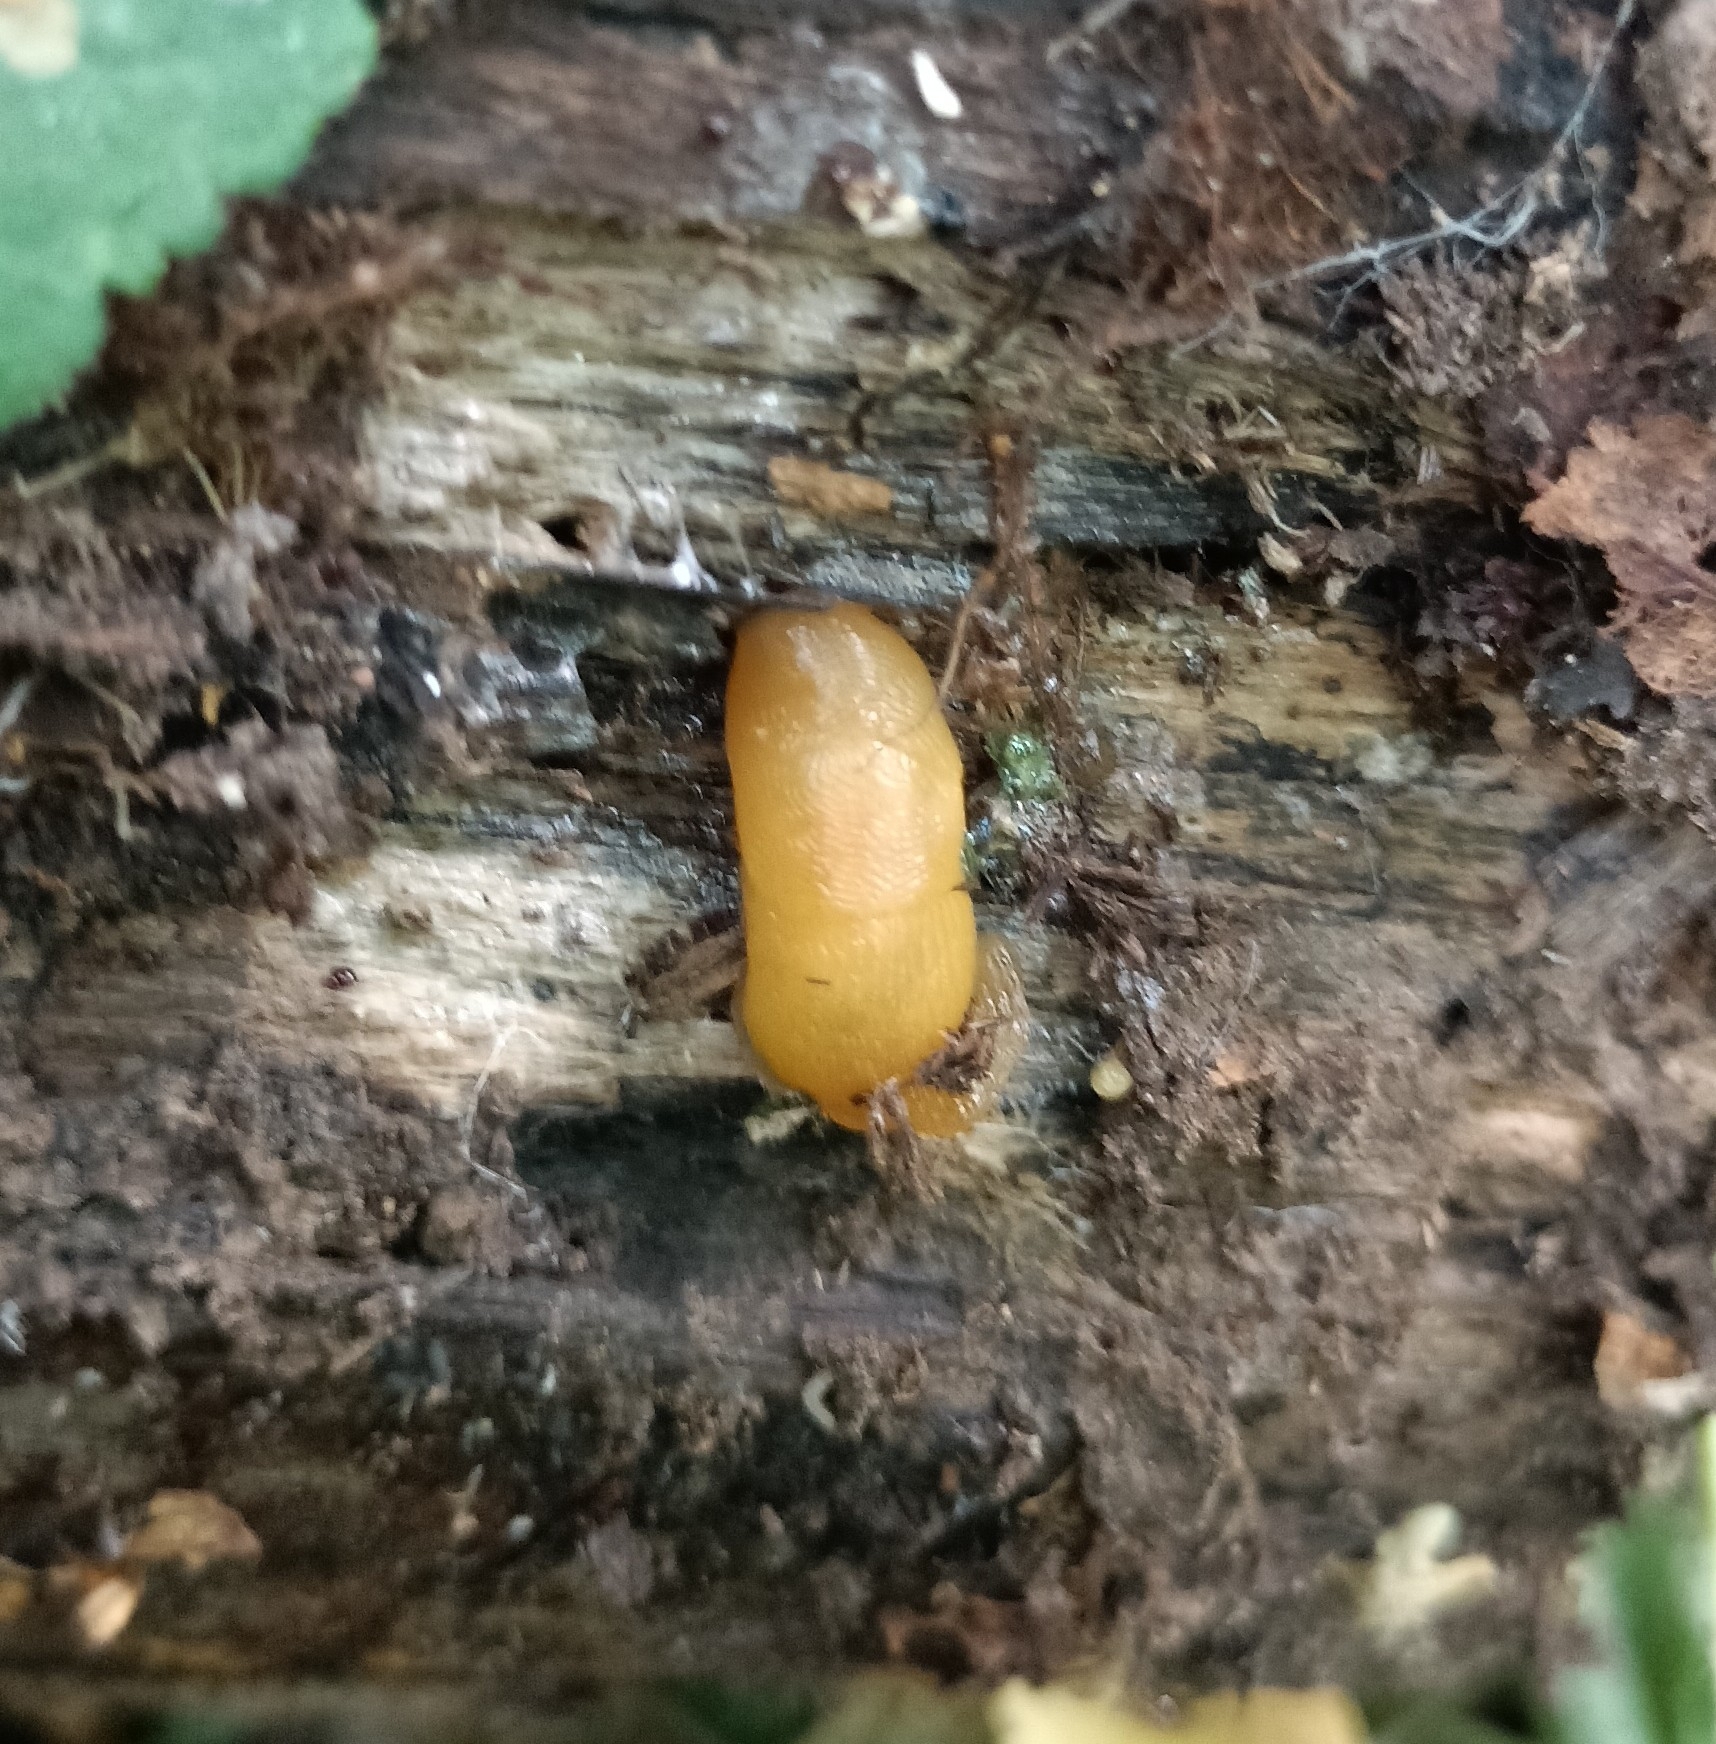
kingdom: Animalia
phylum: Mollusca
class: Gastropoda
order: Stylommatophora
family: Limacidae
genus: Malacolimax
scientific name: Malacolimax tenellus
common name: Lemon slug
